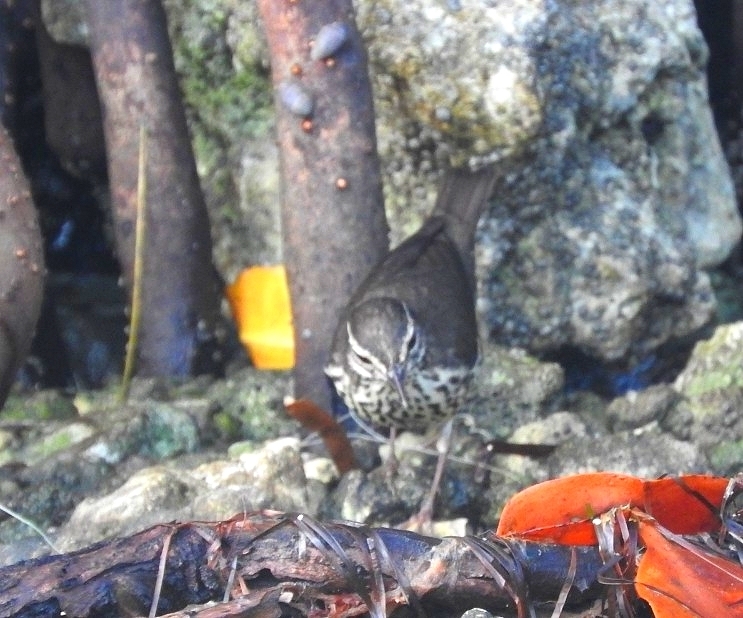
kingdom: Animalia
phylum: Chordata
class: Aves
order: Passeriformes
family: Parulidae
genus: Parkesia
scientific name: Parkesia noveboracensis
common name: Northern waterthrush
